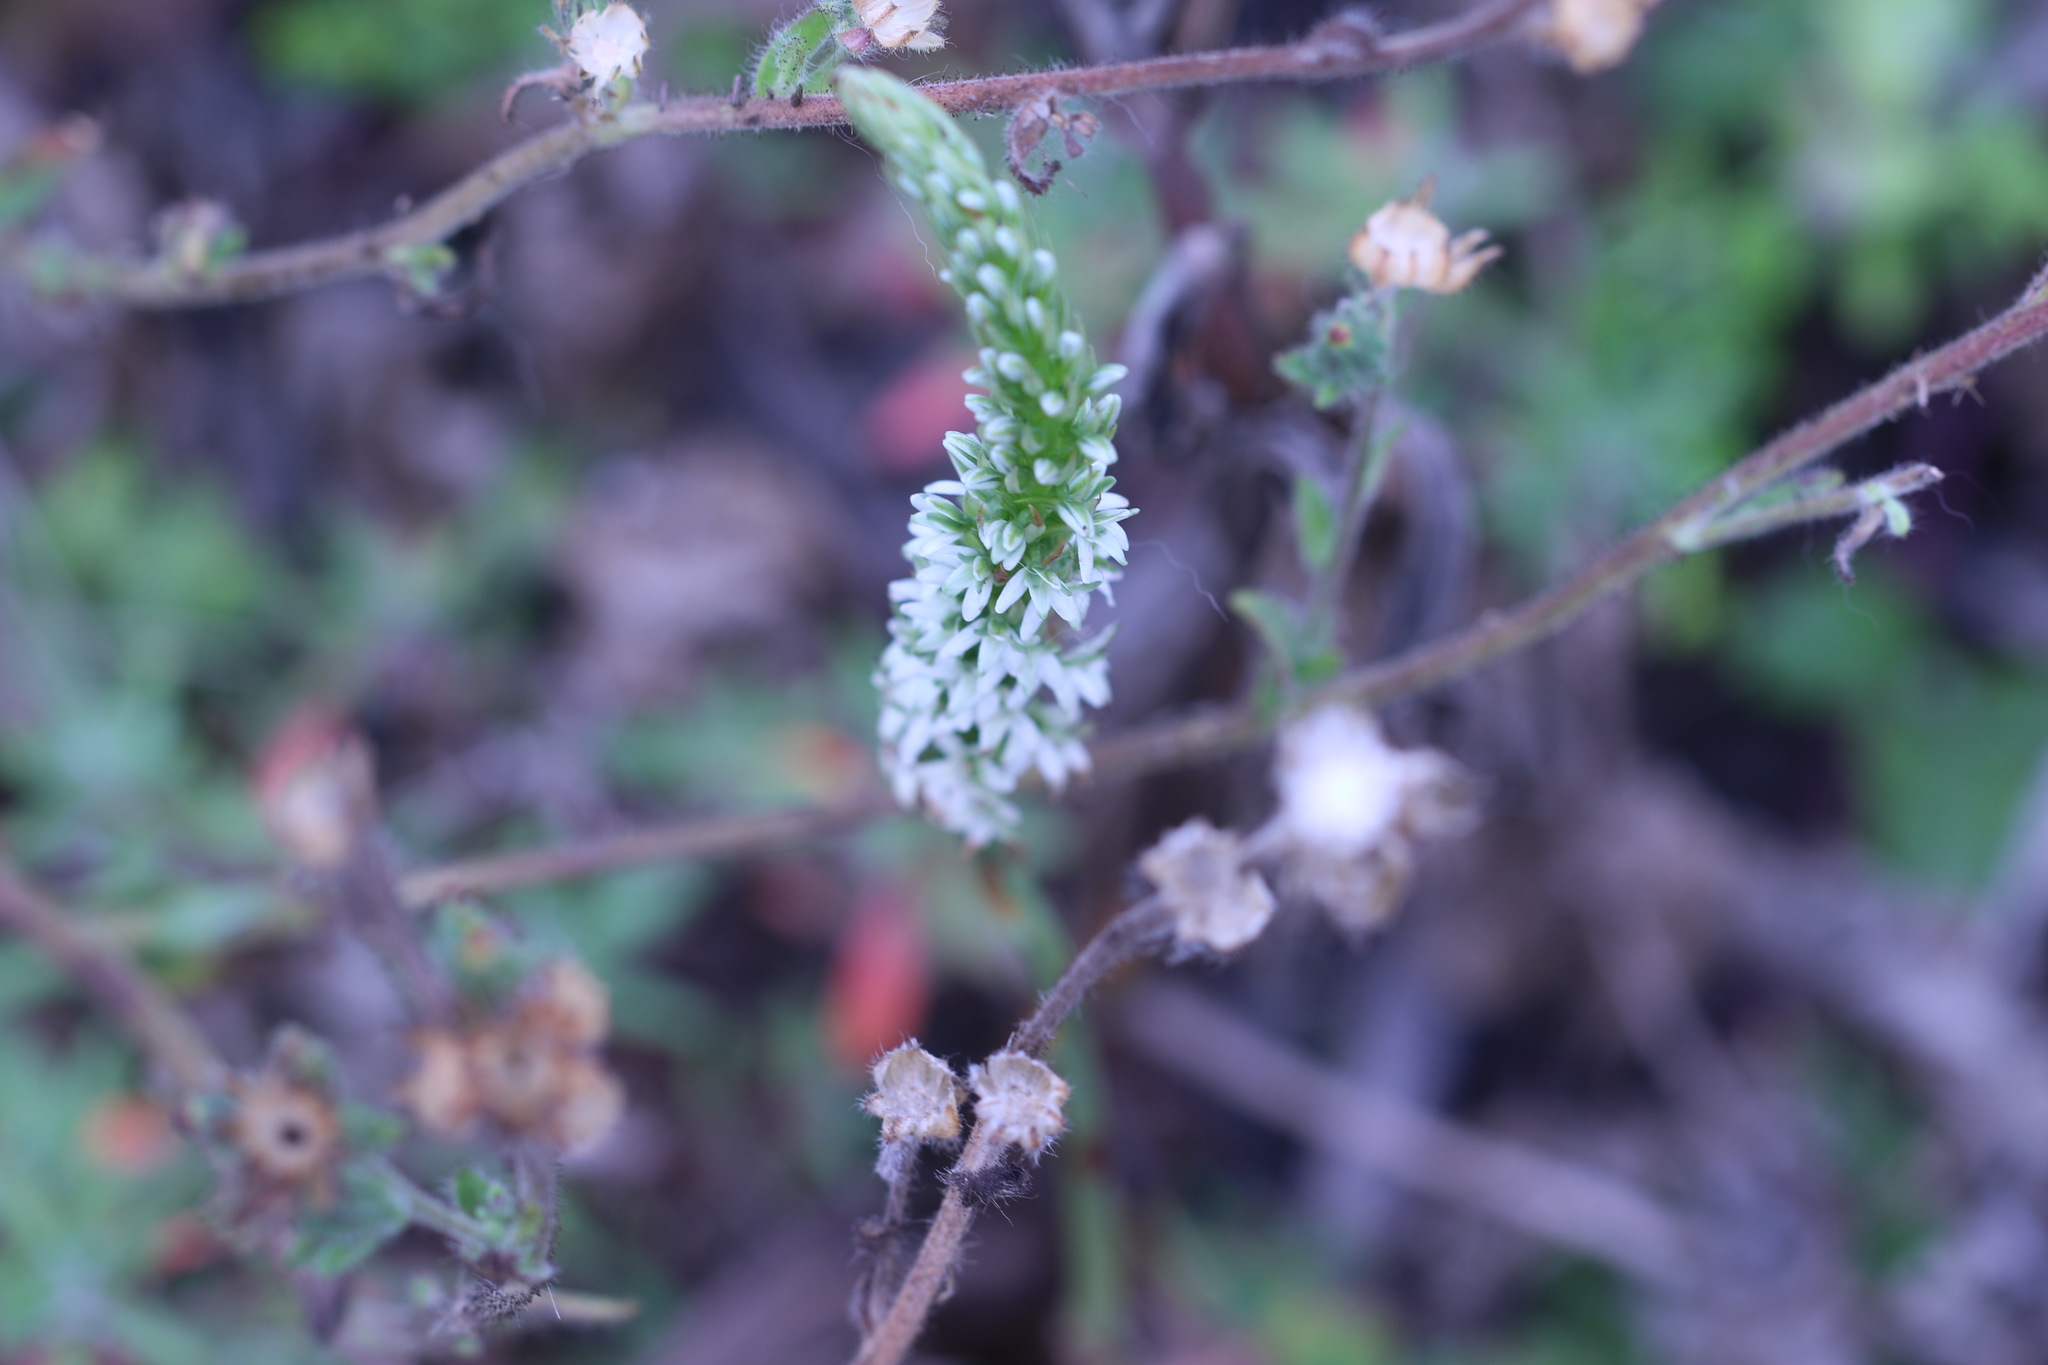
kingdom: Plantae
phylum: Tracheophyta
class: Liliopsida
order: Asparagales
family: Orchidaceae
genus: Platanthera
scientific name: Platanthera elegans
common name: Coast piperia
